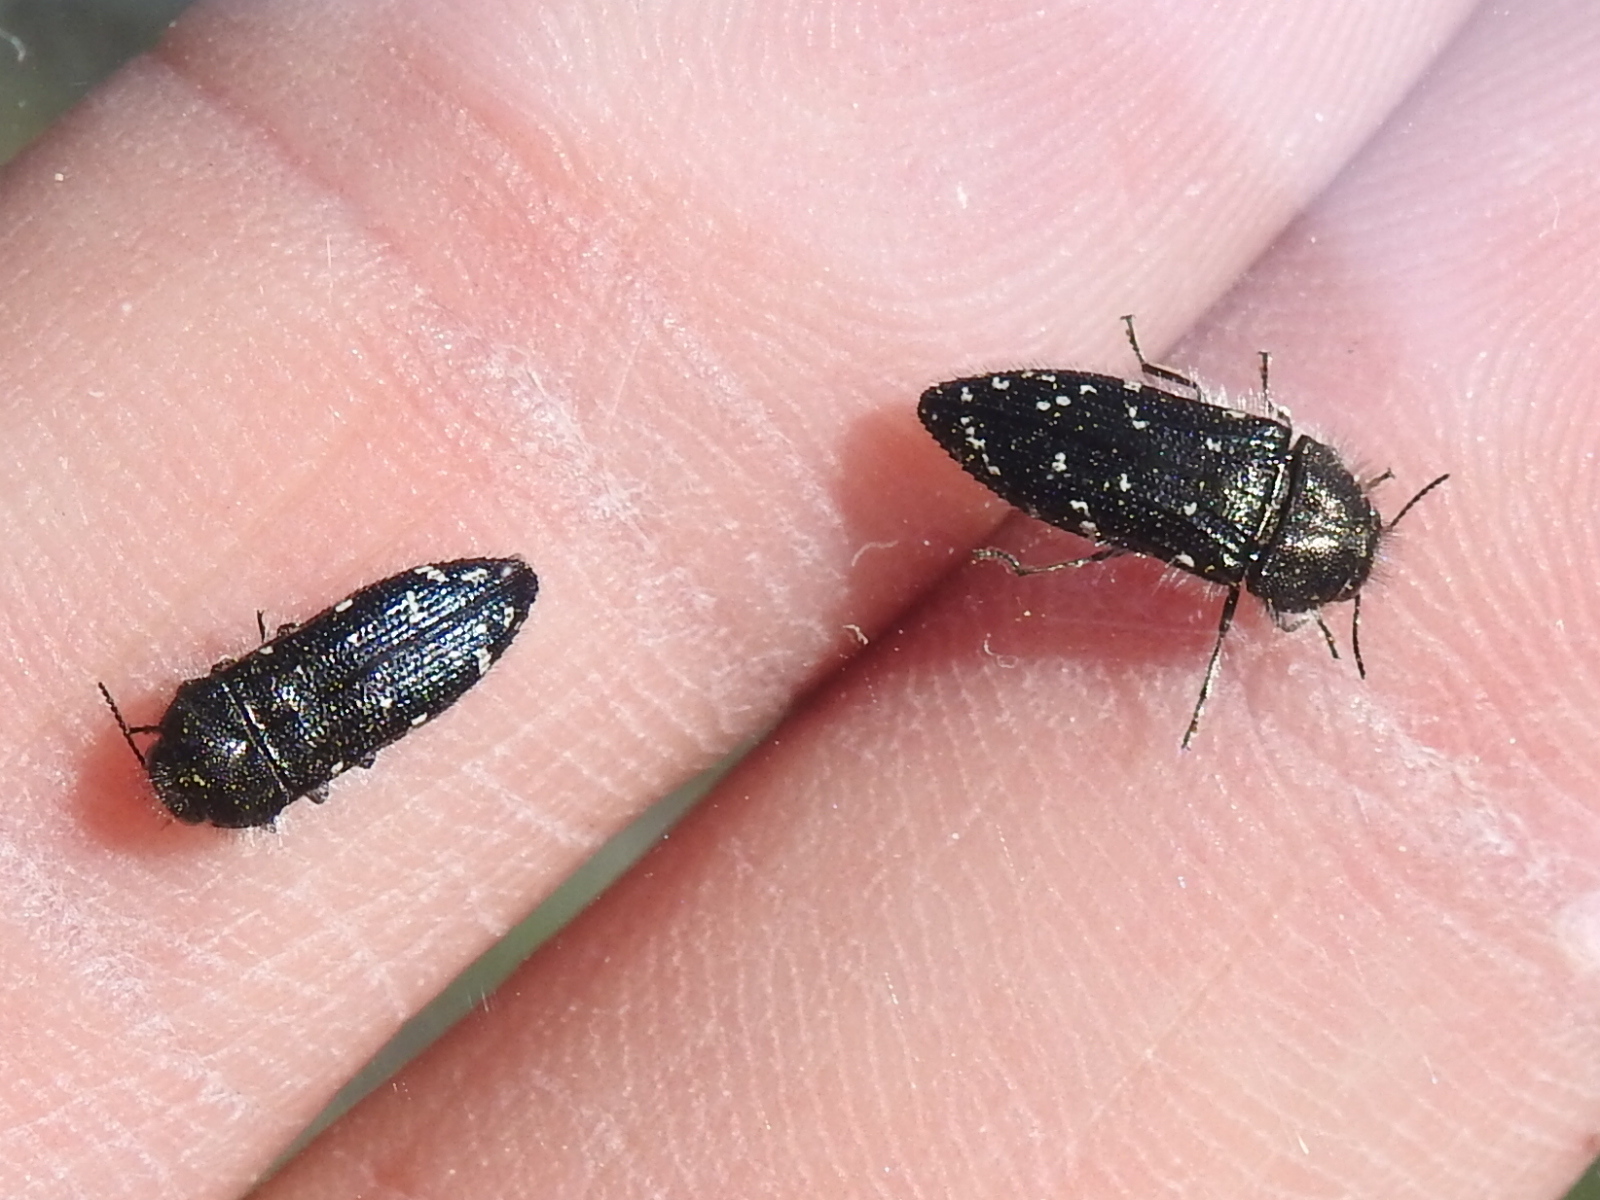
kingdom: Animalia
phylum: Arthropoda
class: Insecta
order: Coleoptera
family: Buprestidae
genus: Acmaeodera
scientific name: Acmaeodera ornatoides
